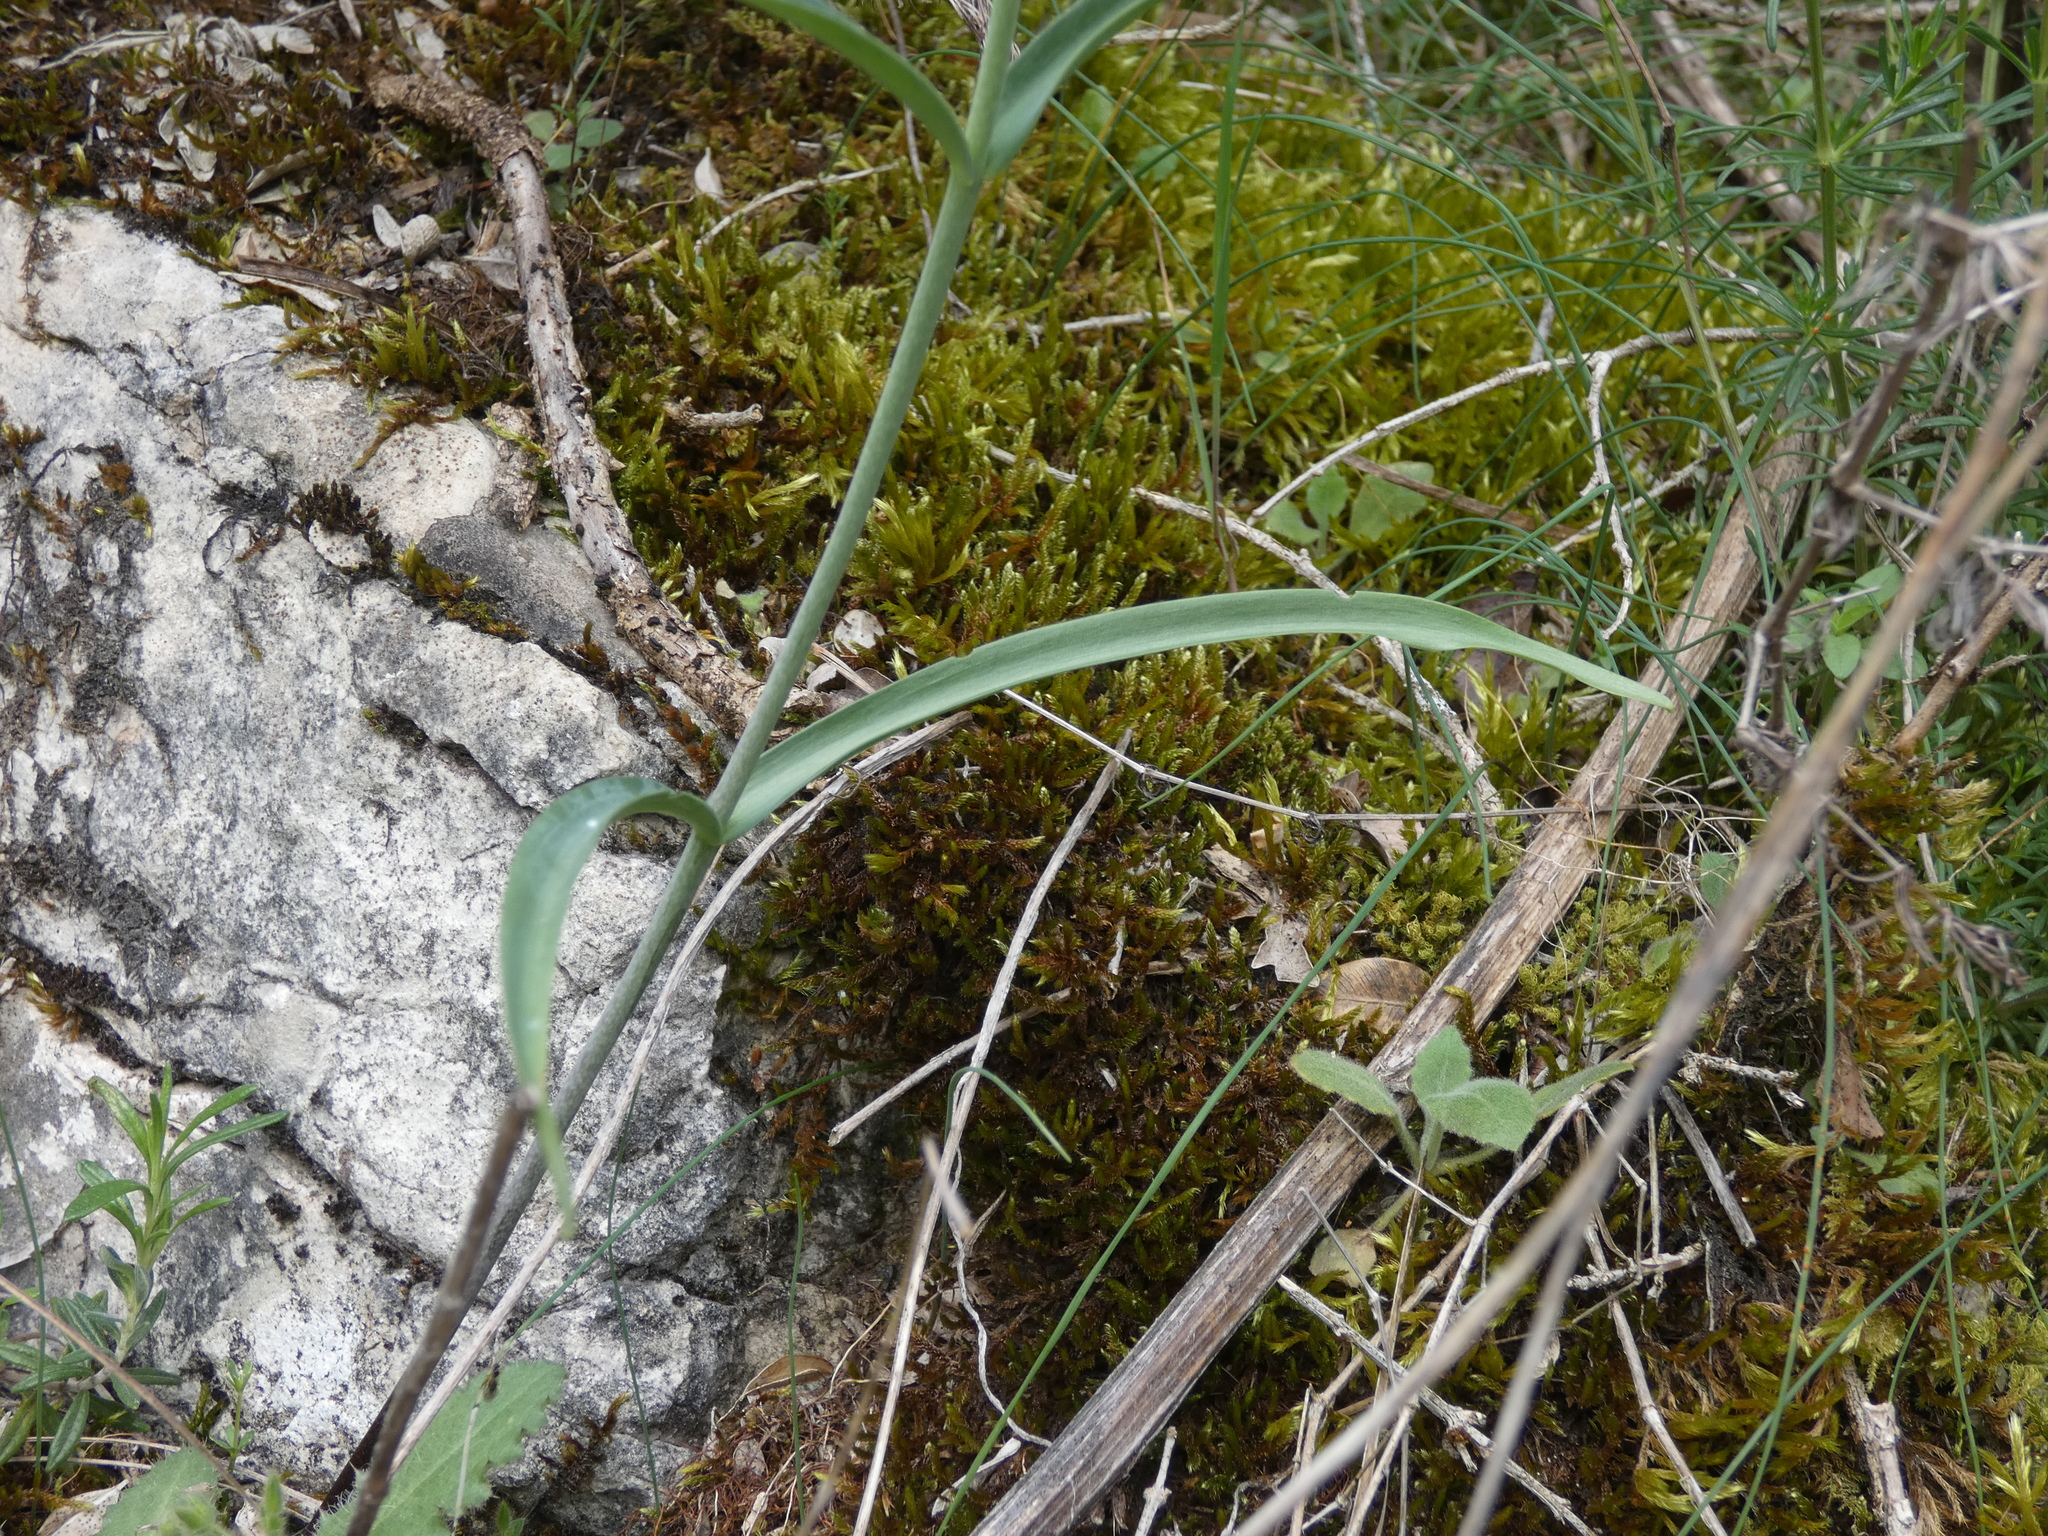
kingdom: Plantae
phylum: Tracheophyta
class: Liliopsida
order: Liliales
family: Liliaceae
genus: Fritillaria
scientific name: Fritillaria involucrata
